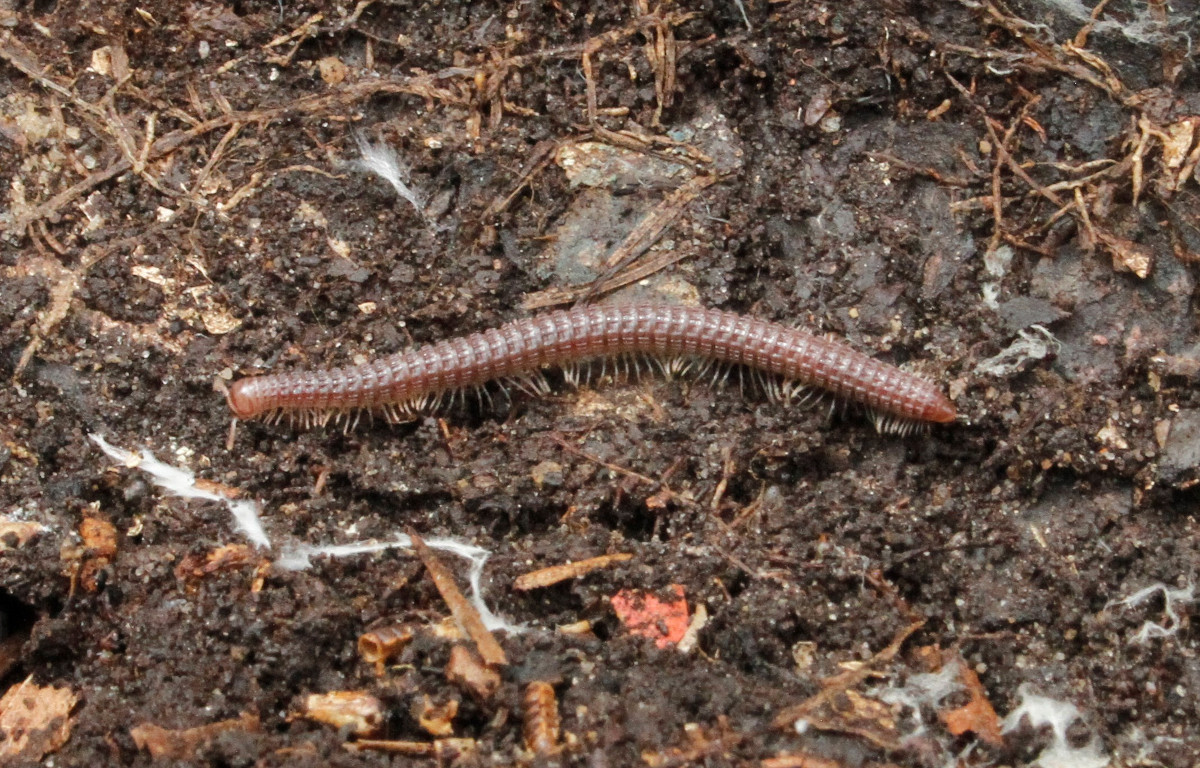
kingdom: Animalia
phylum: Arthropoda
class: Diplopoda
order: Spirostreptida
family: Cambalidae
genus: Cambala
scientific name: Cambala annulata
